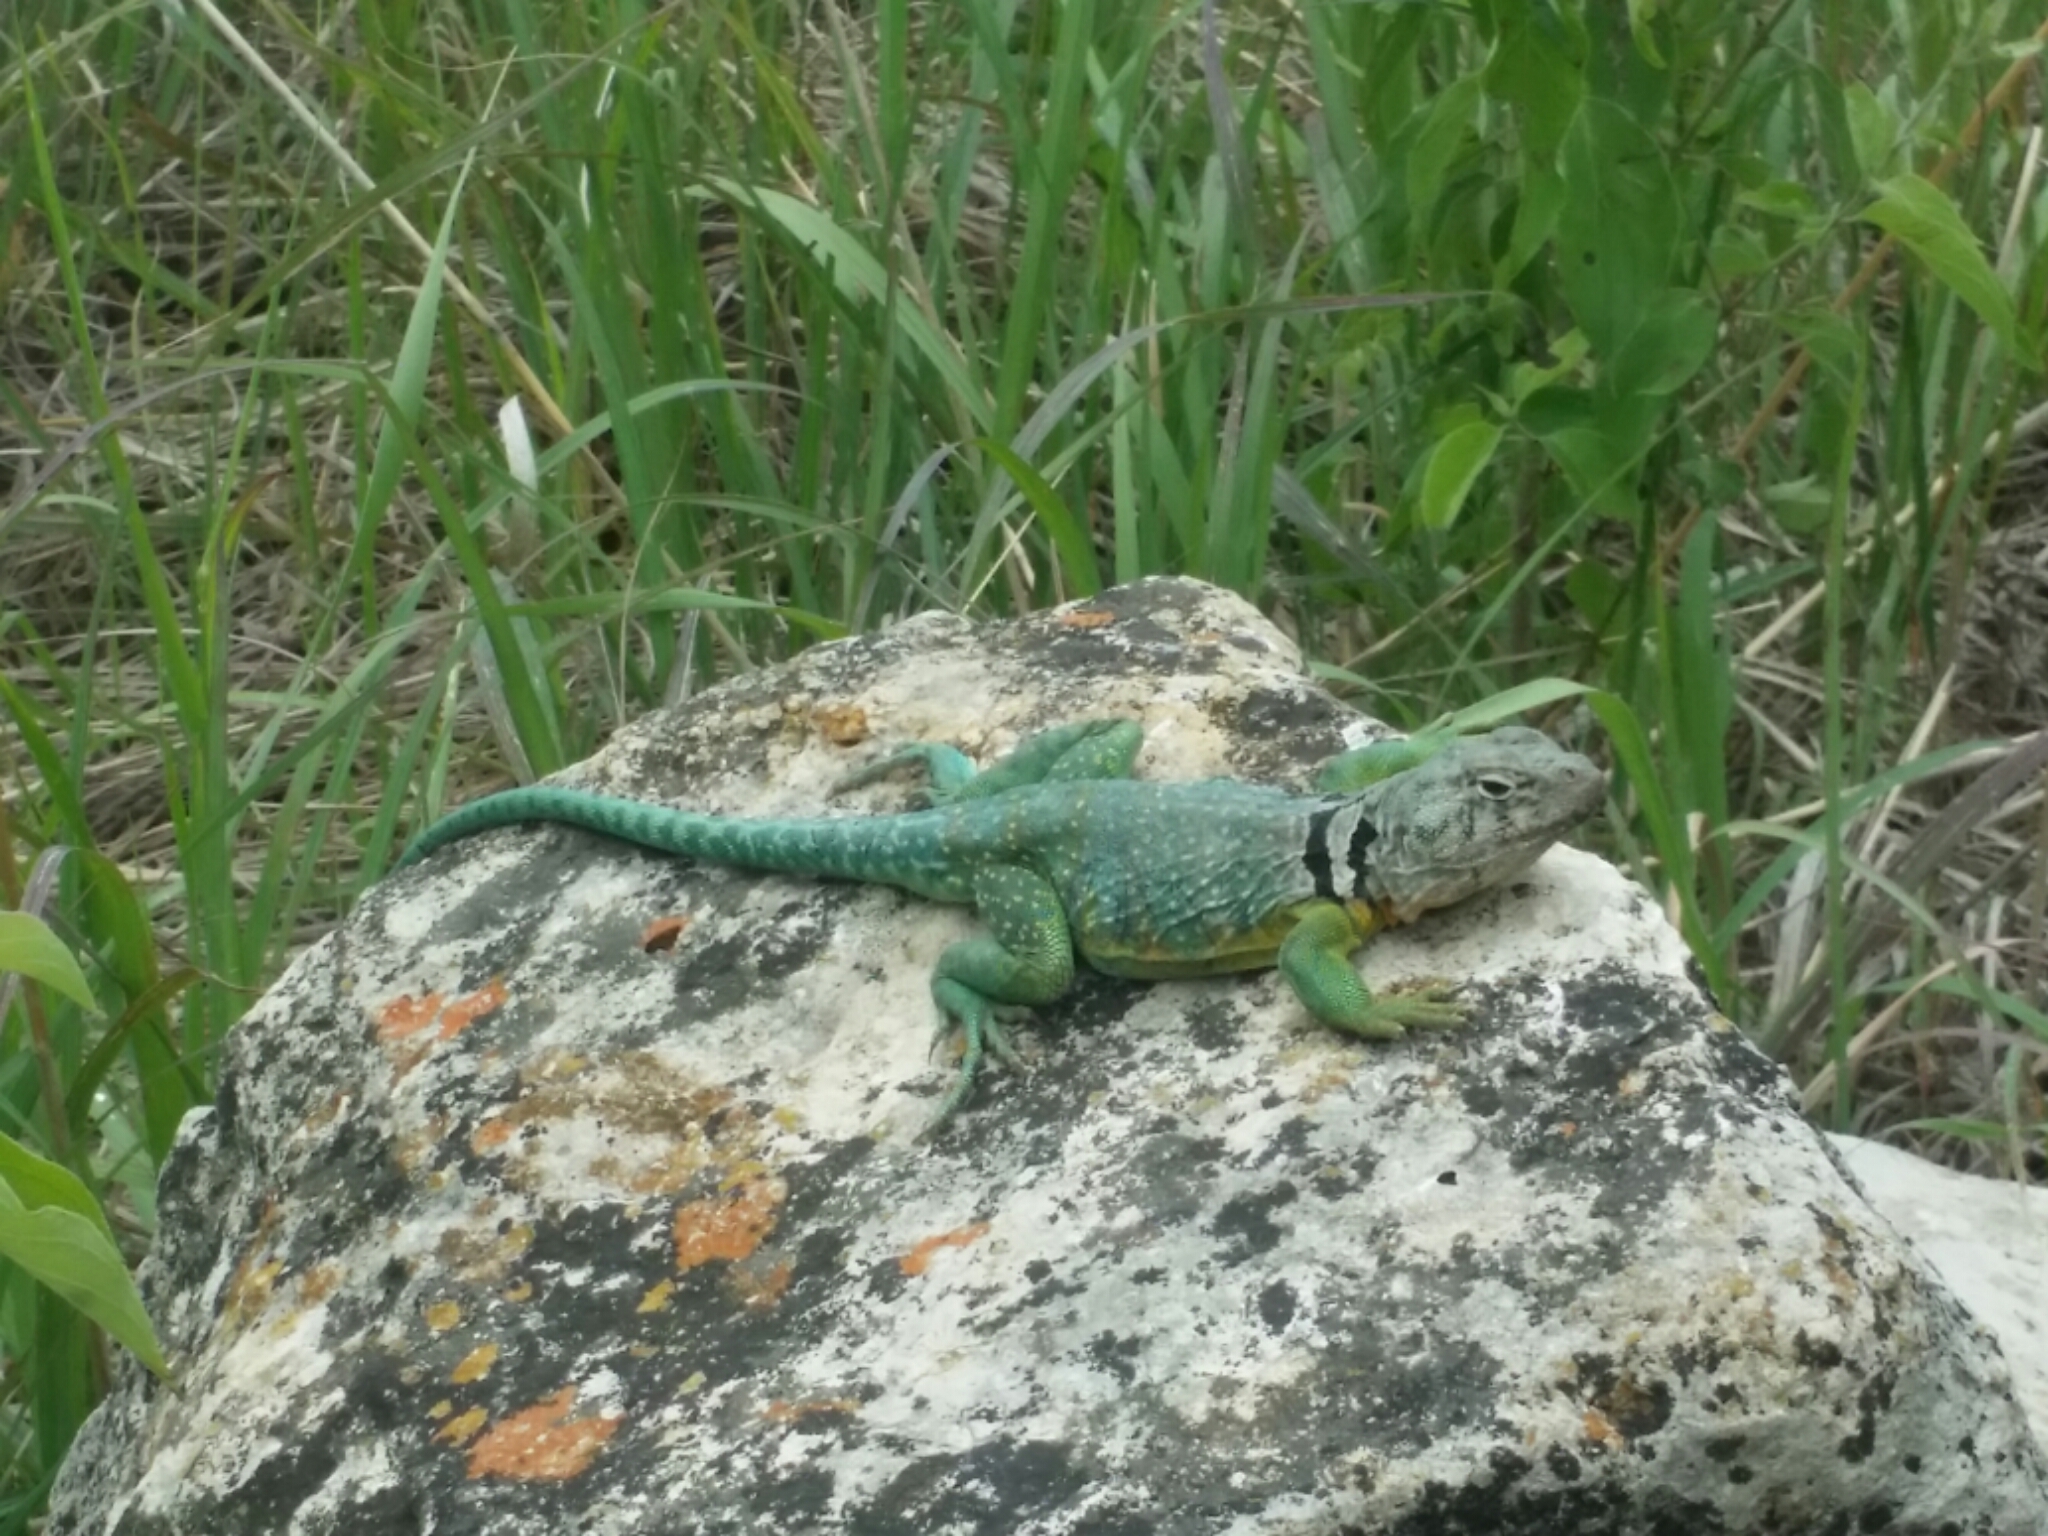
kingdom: Animalia
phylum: Chordata
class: Squamata
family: Crotaphytidae
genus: Crotaphytus
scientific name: Crotaphytus collaris
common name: Collared lizard
